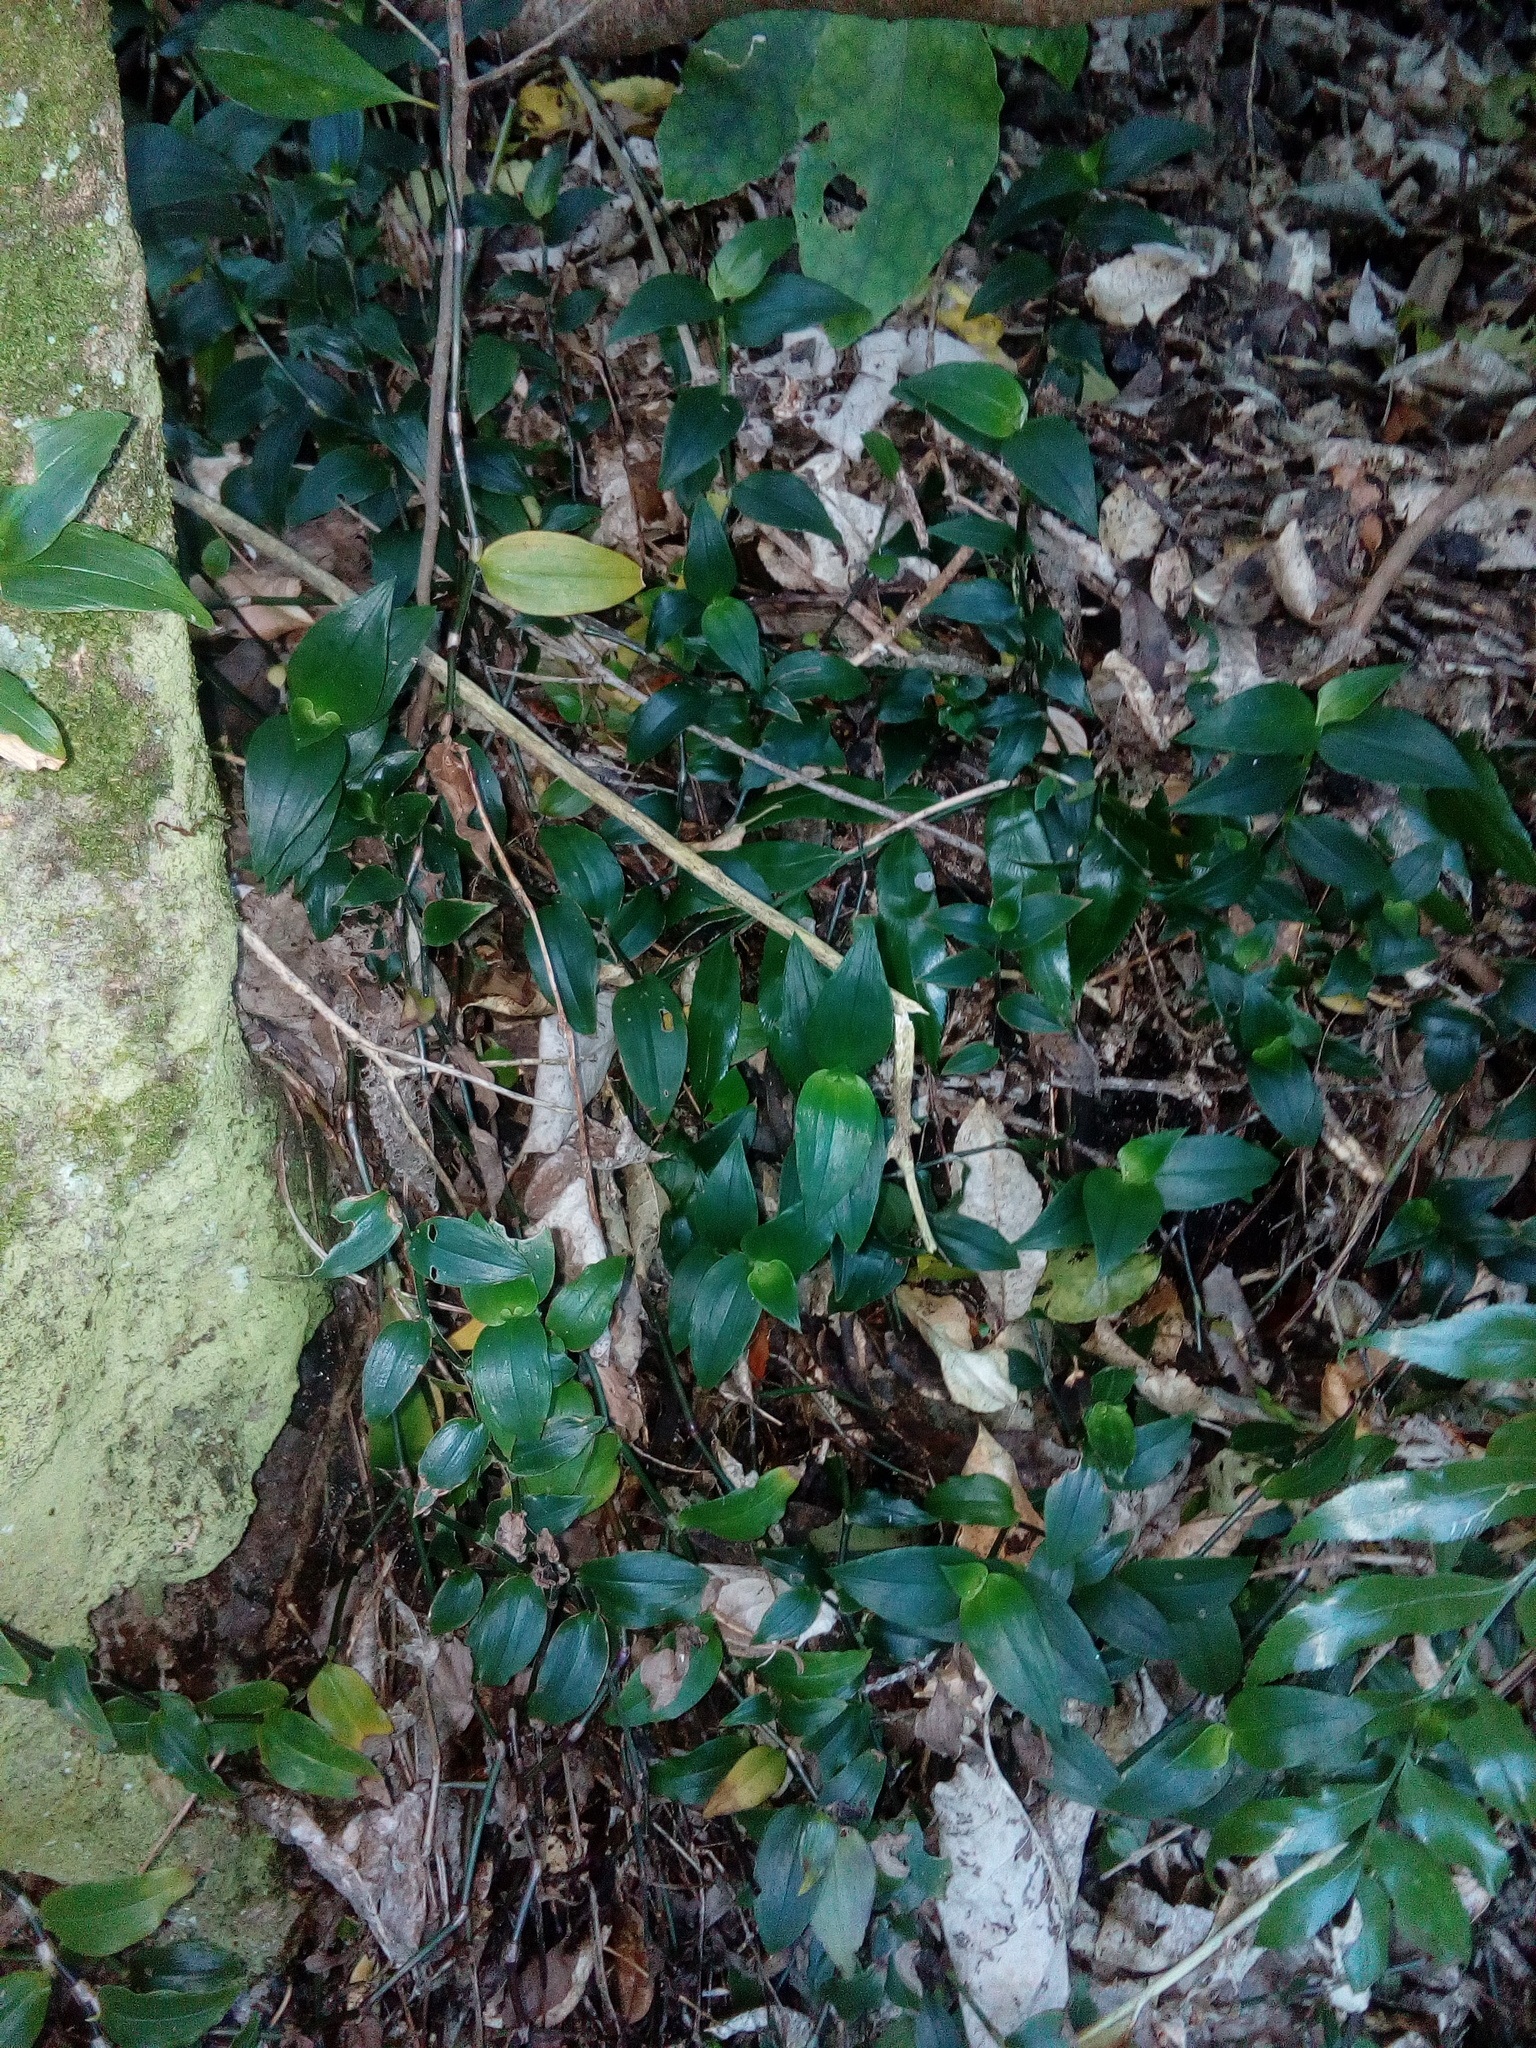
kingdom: Plantae
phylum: Tracheophyta
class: Liliopsida
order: Commelinales
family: Commelinaceae
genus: Tradescantia
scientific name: Tradescantia fluminensis
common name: Wandering-jew
